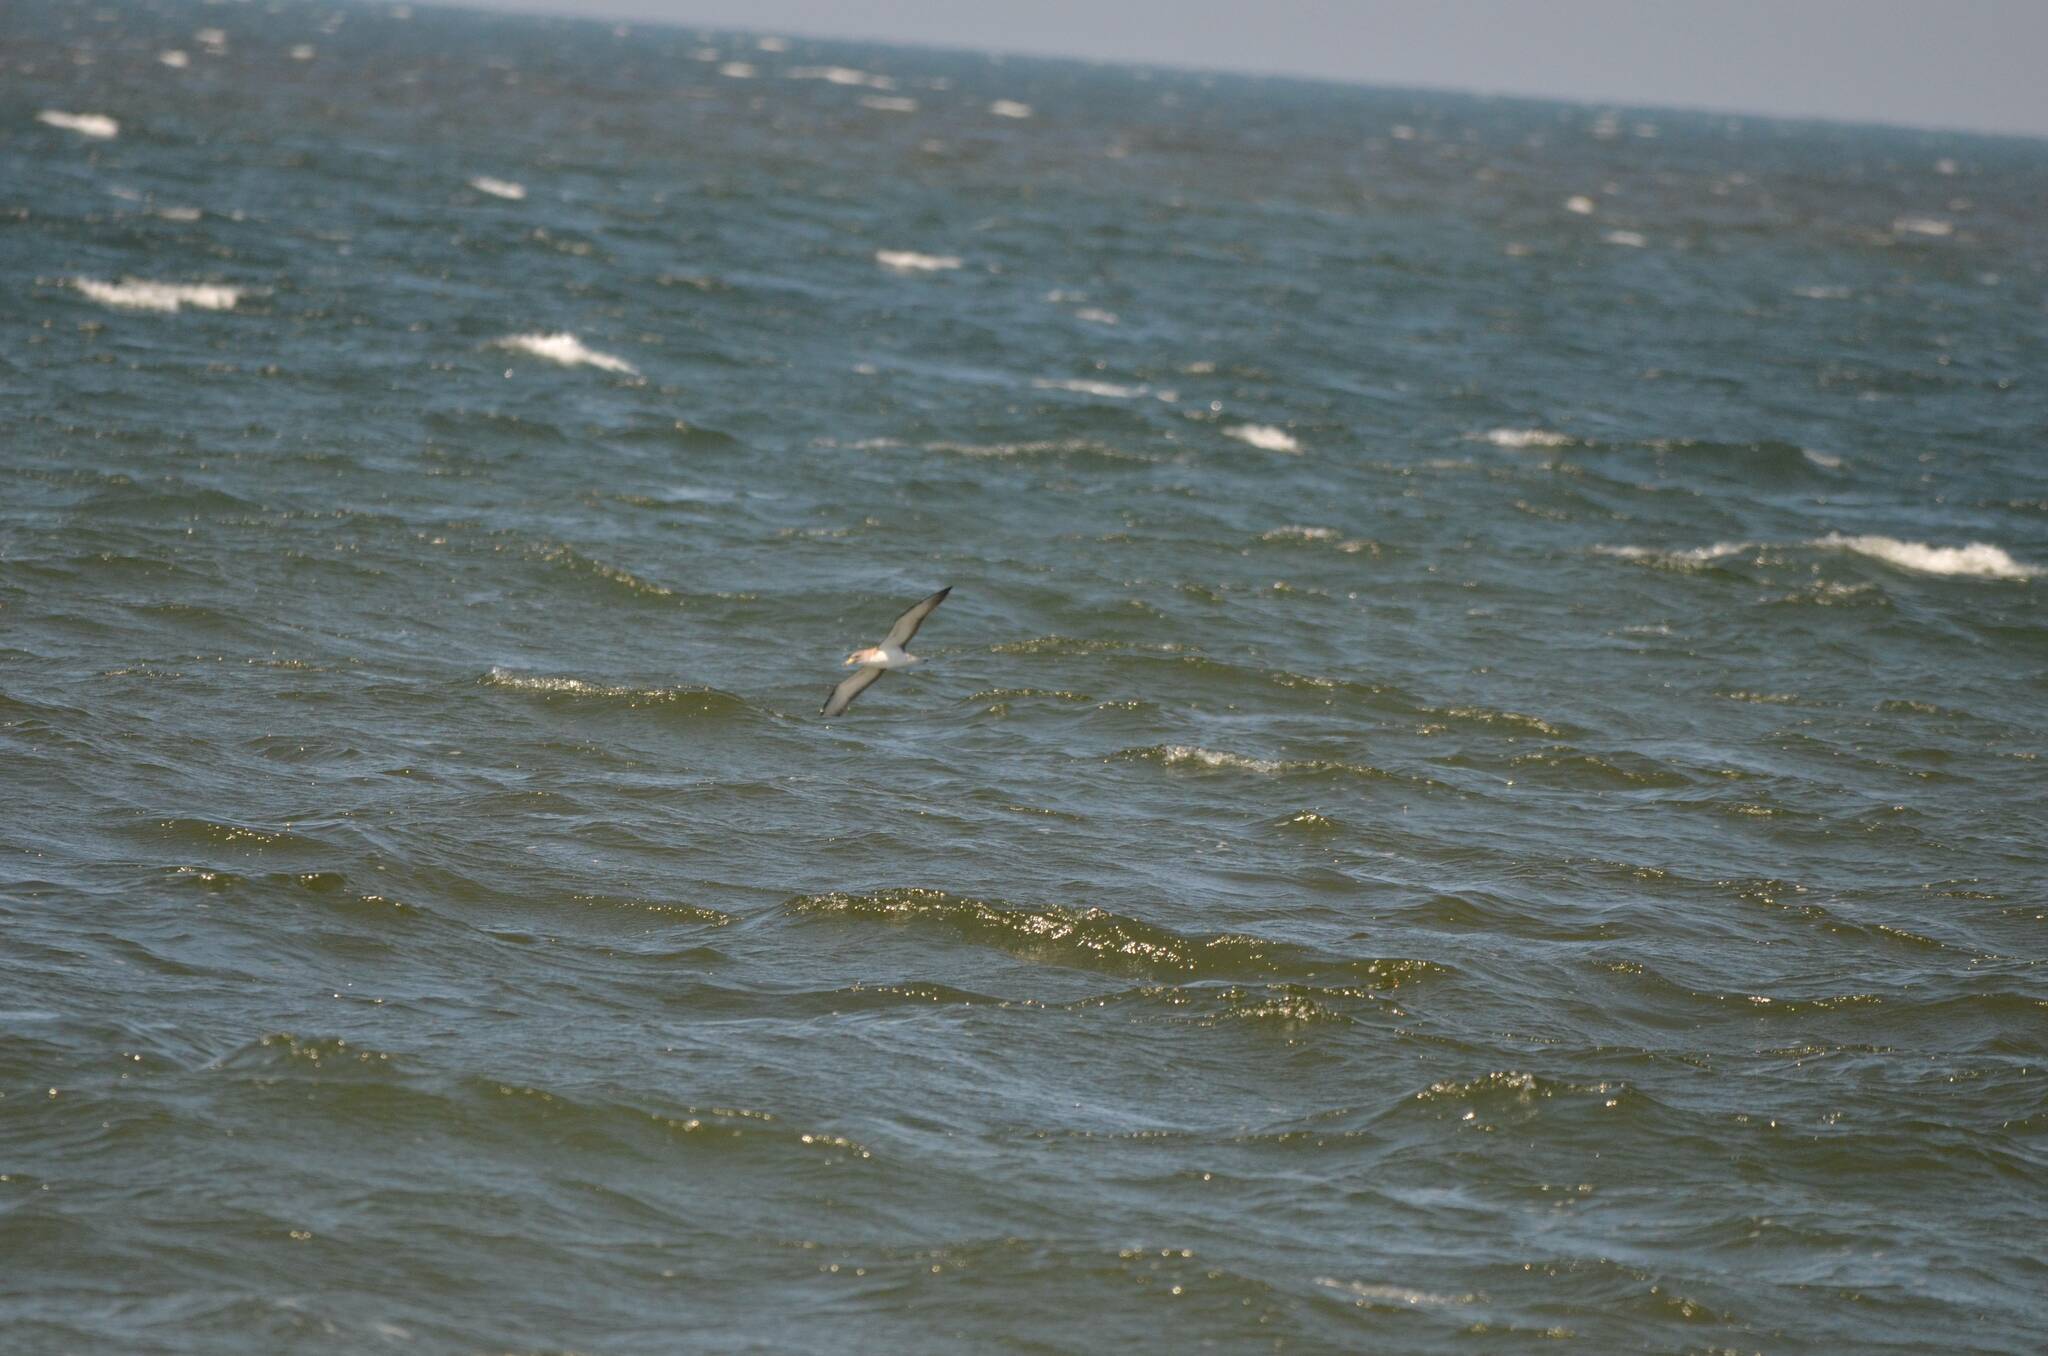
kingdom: Animalia
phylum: Chordata
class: Aves
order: Procellariiformes
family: Procellariidae
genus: Calonectris
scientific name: Calonectris diomedea
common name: Cory's shearwater
